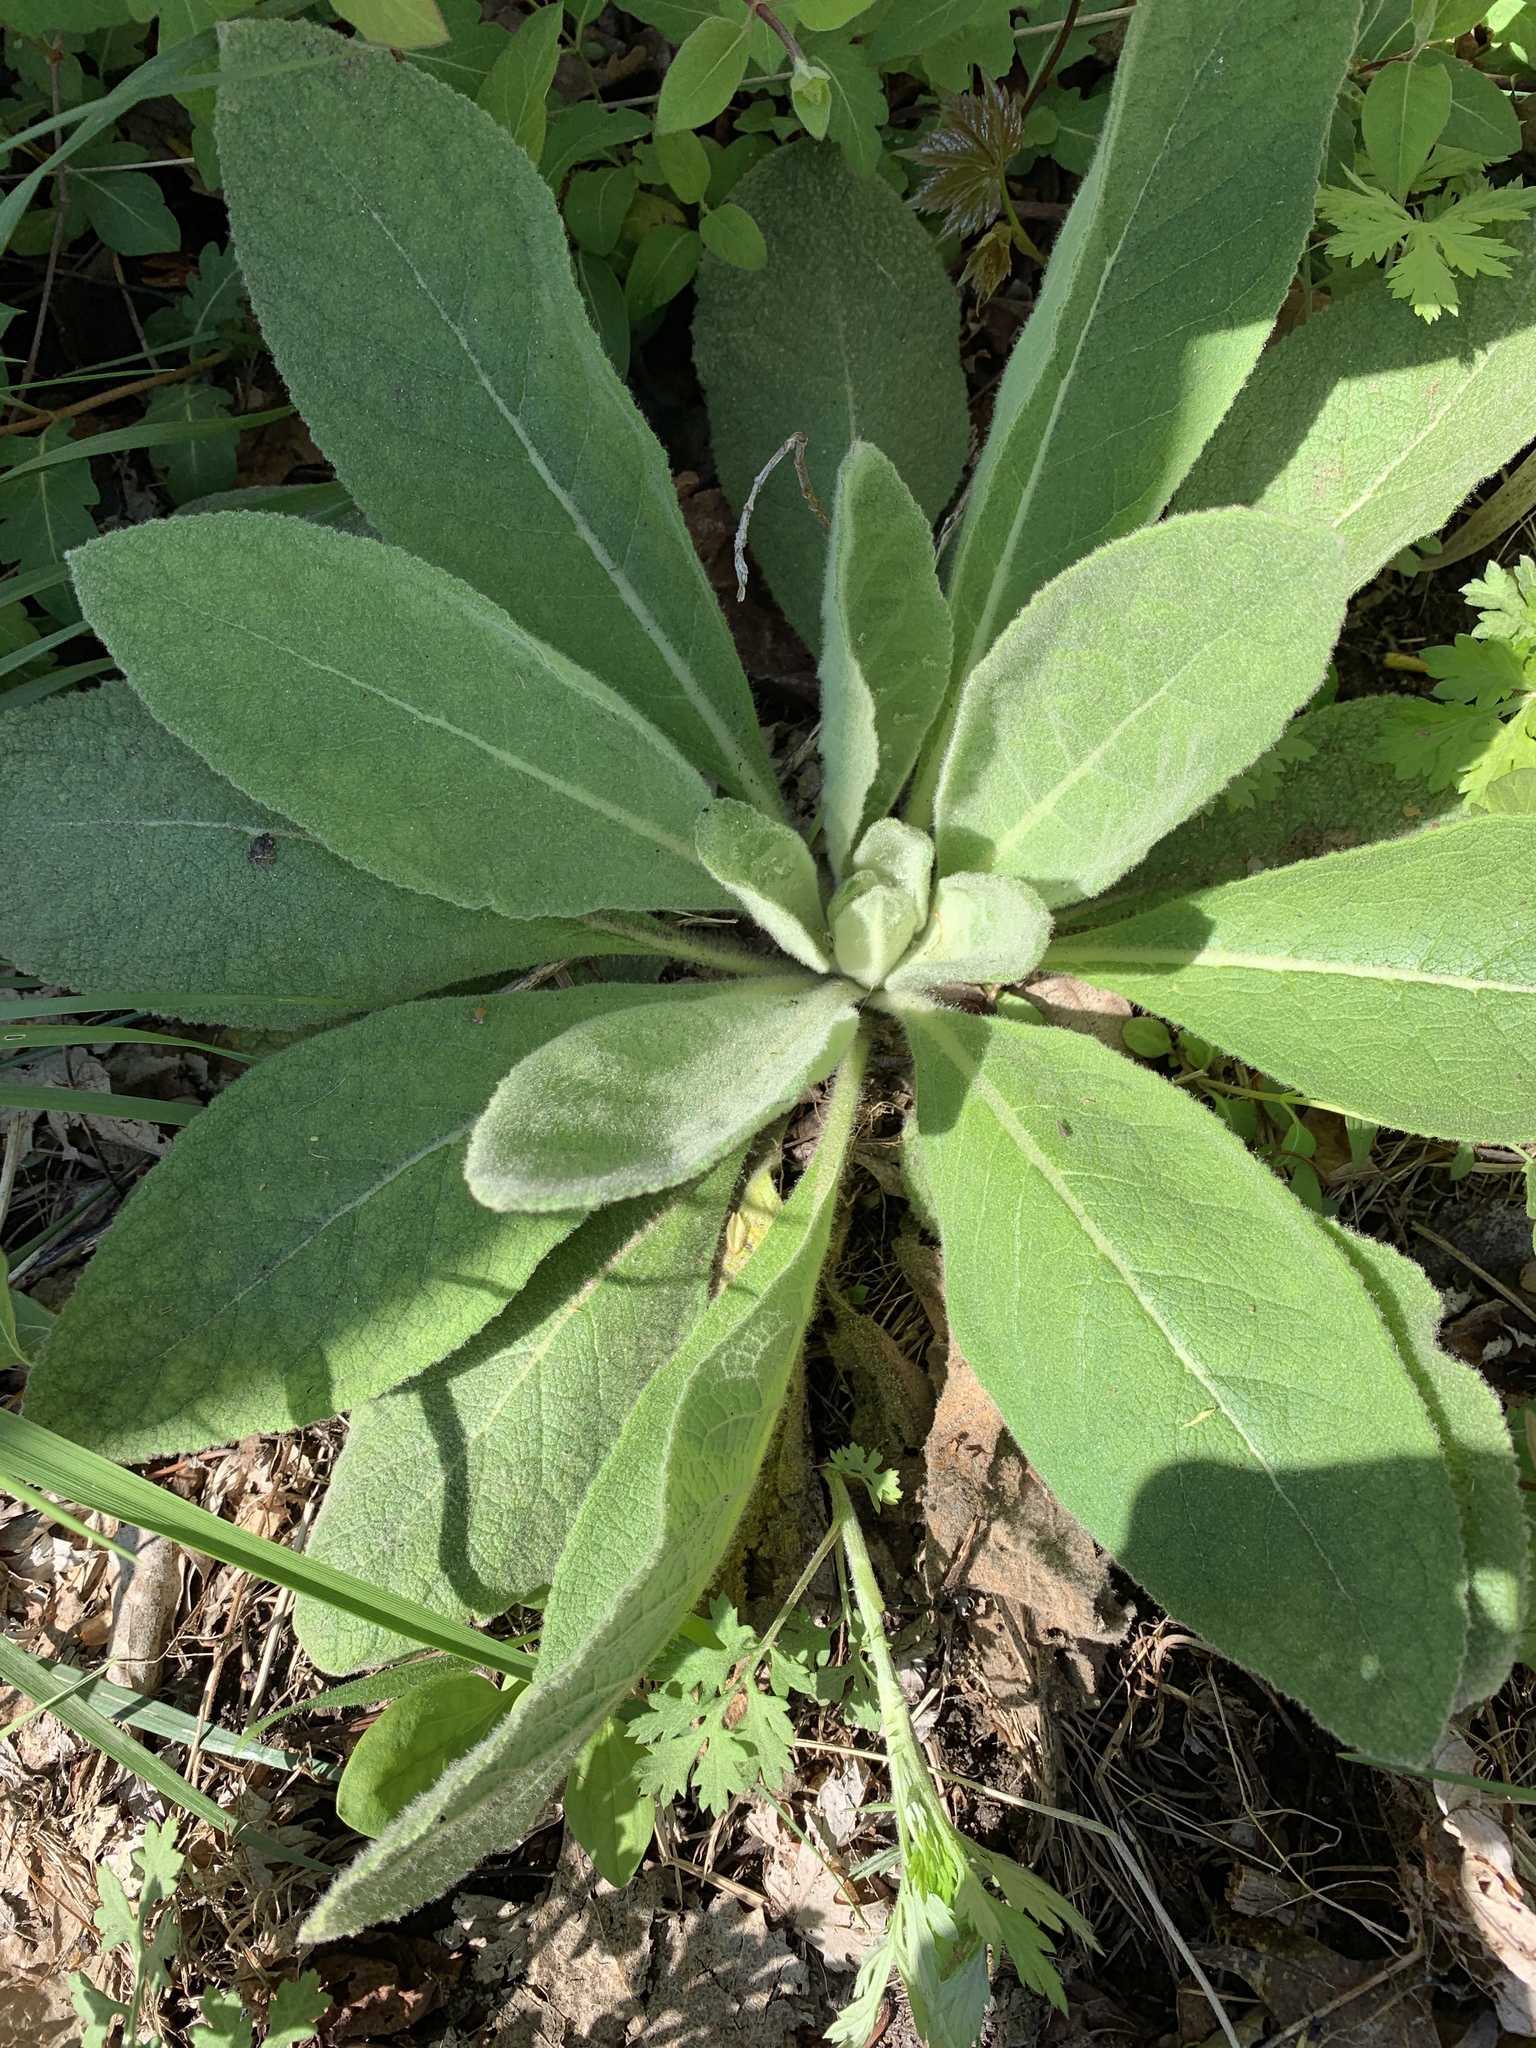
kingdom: Plantae
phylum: Tracheophyta
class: Magnoliopsida
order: Lamiales
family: Scrophulariaceae
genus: Verbascum
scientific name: Verbascum thapsus
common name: Common mullein
